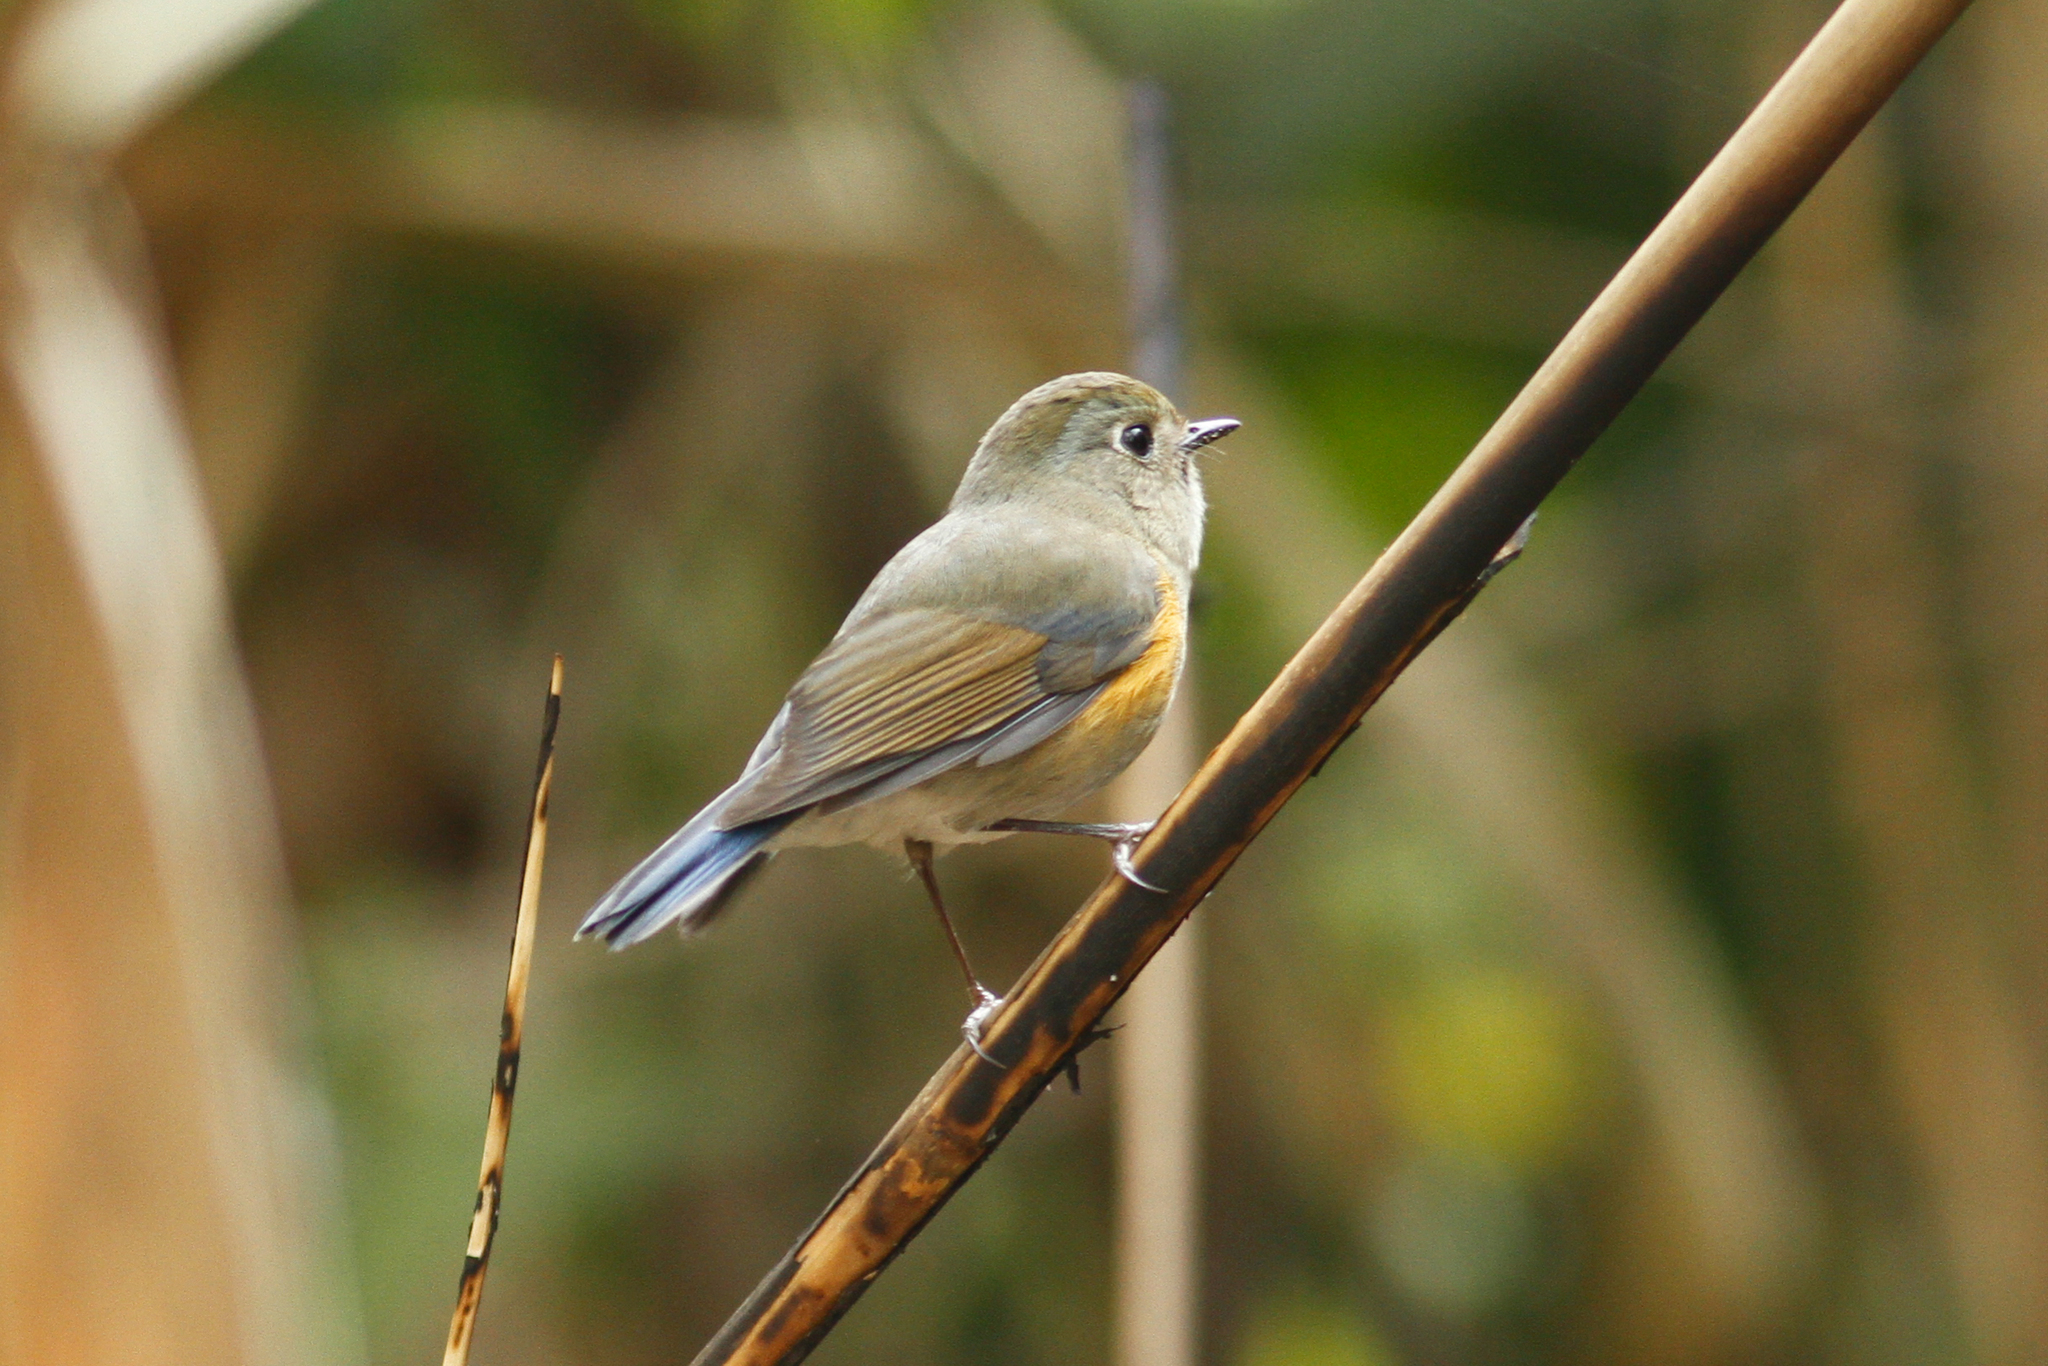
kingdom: Animalia
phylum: Chordata
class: Aves
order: Passeriformes
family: Muscicapidae
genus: Tarsiger
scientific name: Tarsiger rufilatus
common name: Himalayan bluetail
